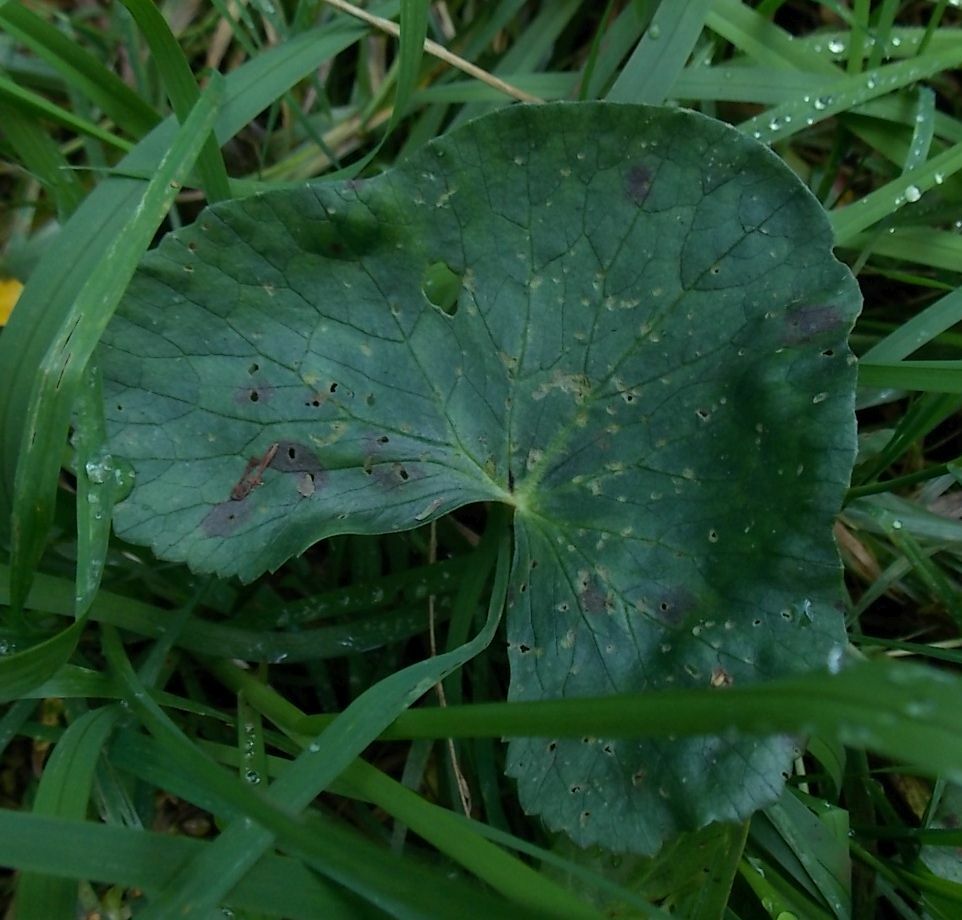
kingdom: Plantae
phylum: Tracheophyta
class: Magnoliopsida
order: Ranunculales
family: Ranunculaceae
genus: Caltha
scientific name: Caltha palustris
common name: Marsh marigold
